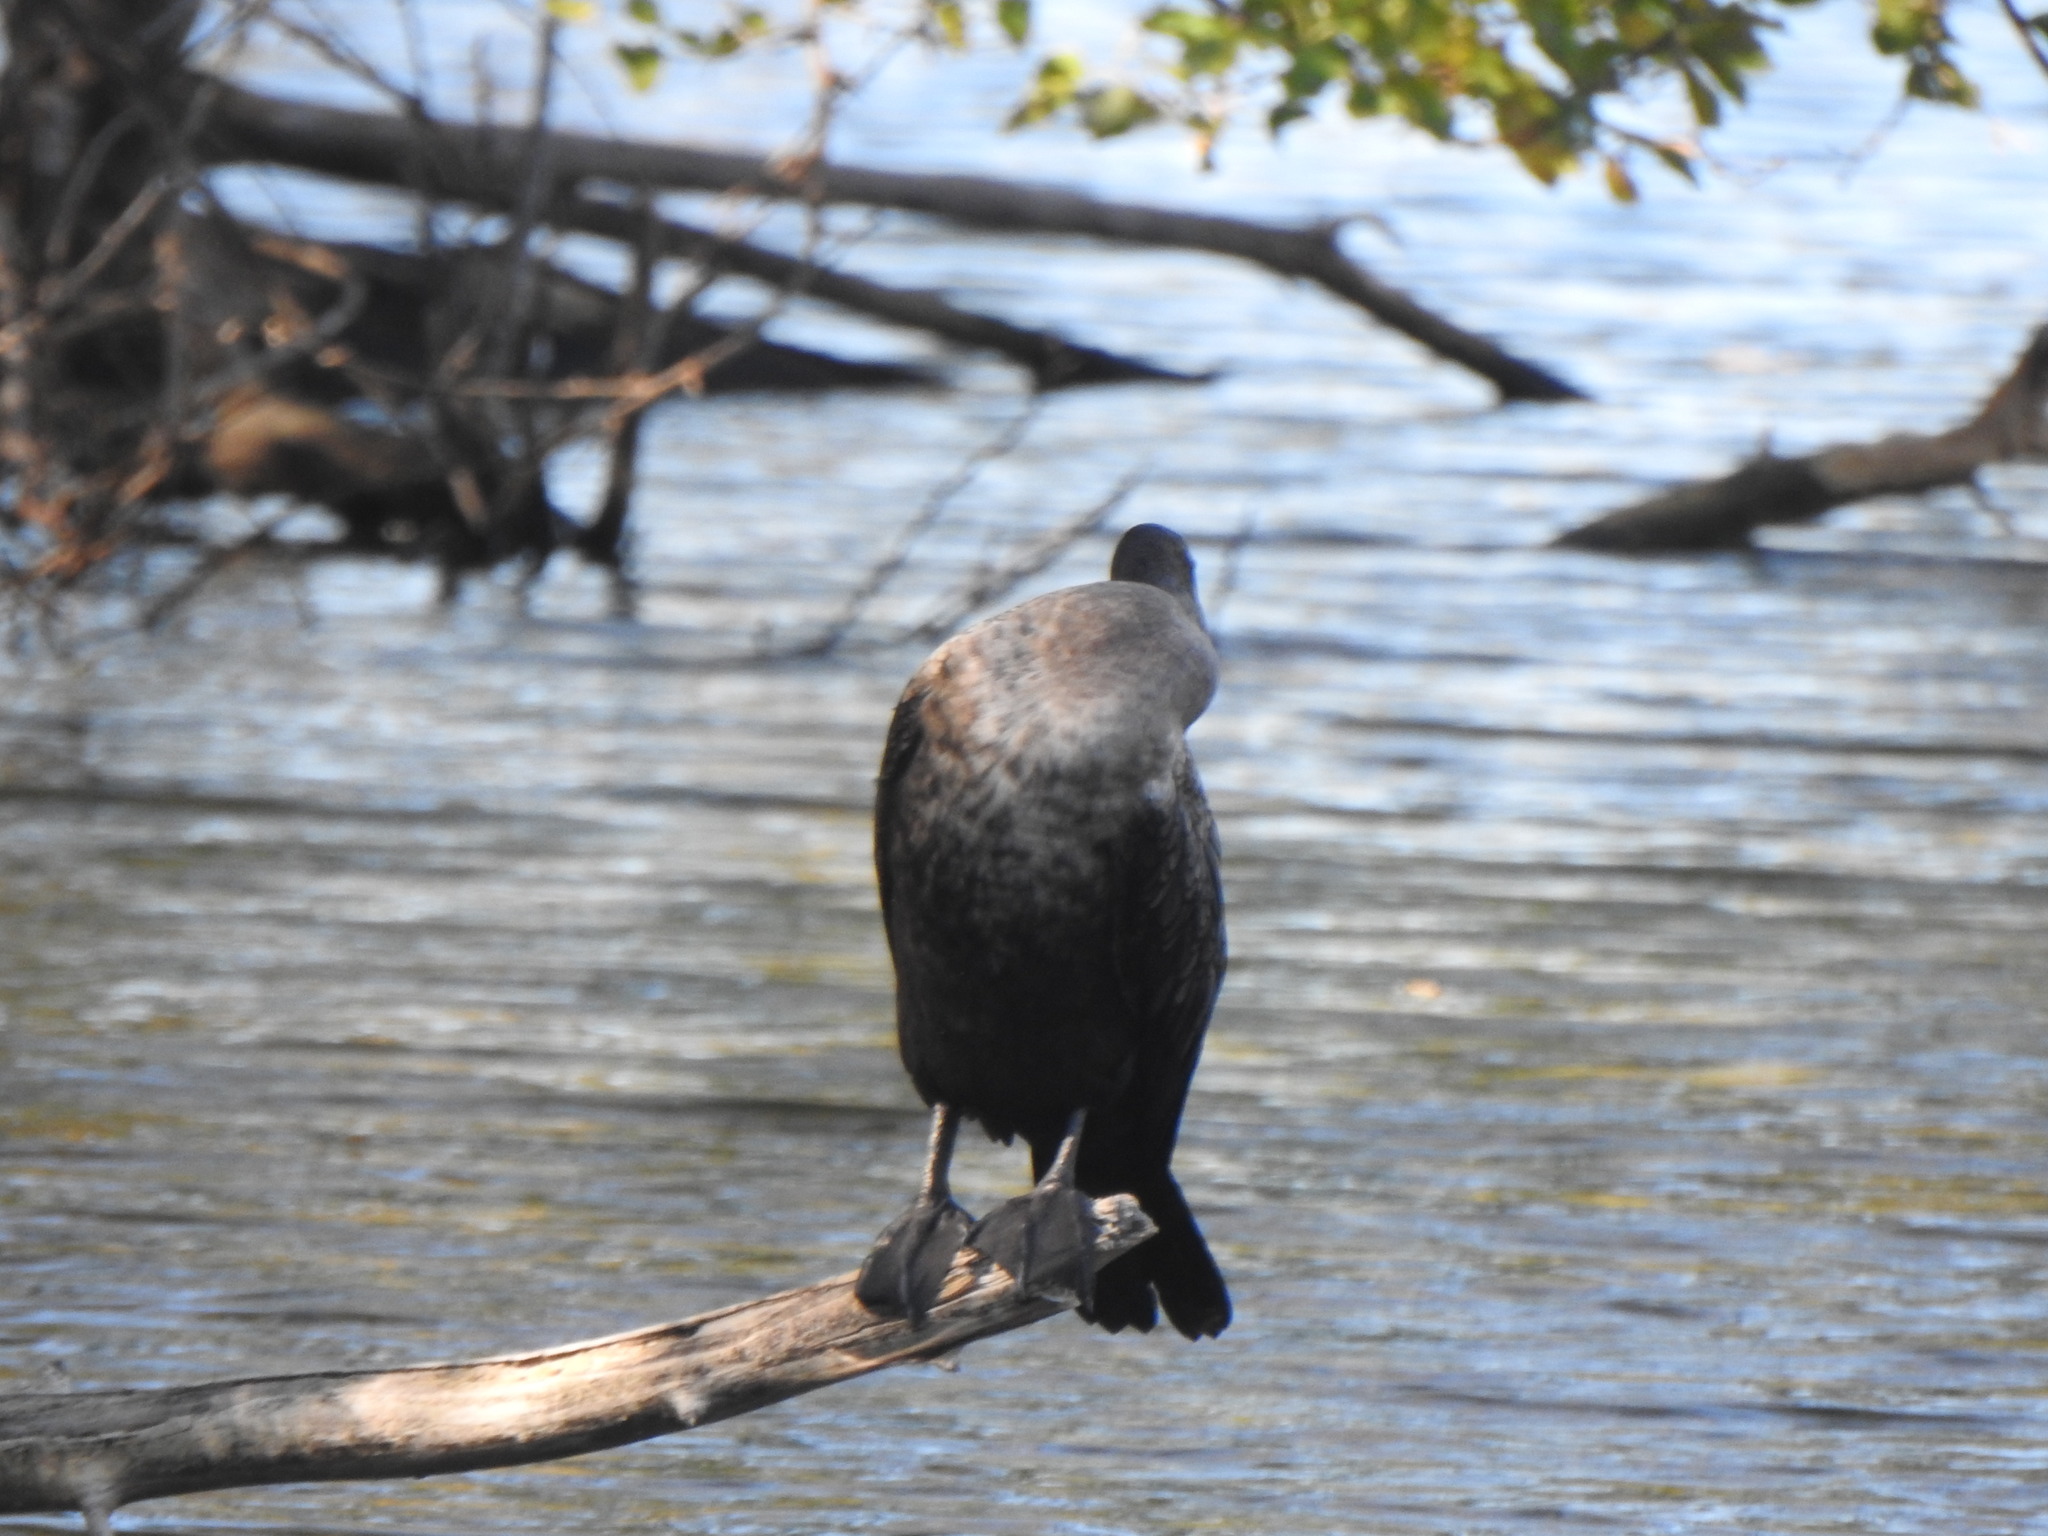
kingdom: Animalia
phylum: Chordata
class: Aves
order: Suliformes
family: Phalacrocoracidae
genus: Phalacrocorax
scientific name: Phalacrocorax auritus
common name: Double-crested cormorant
